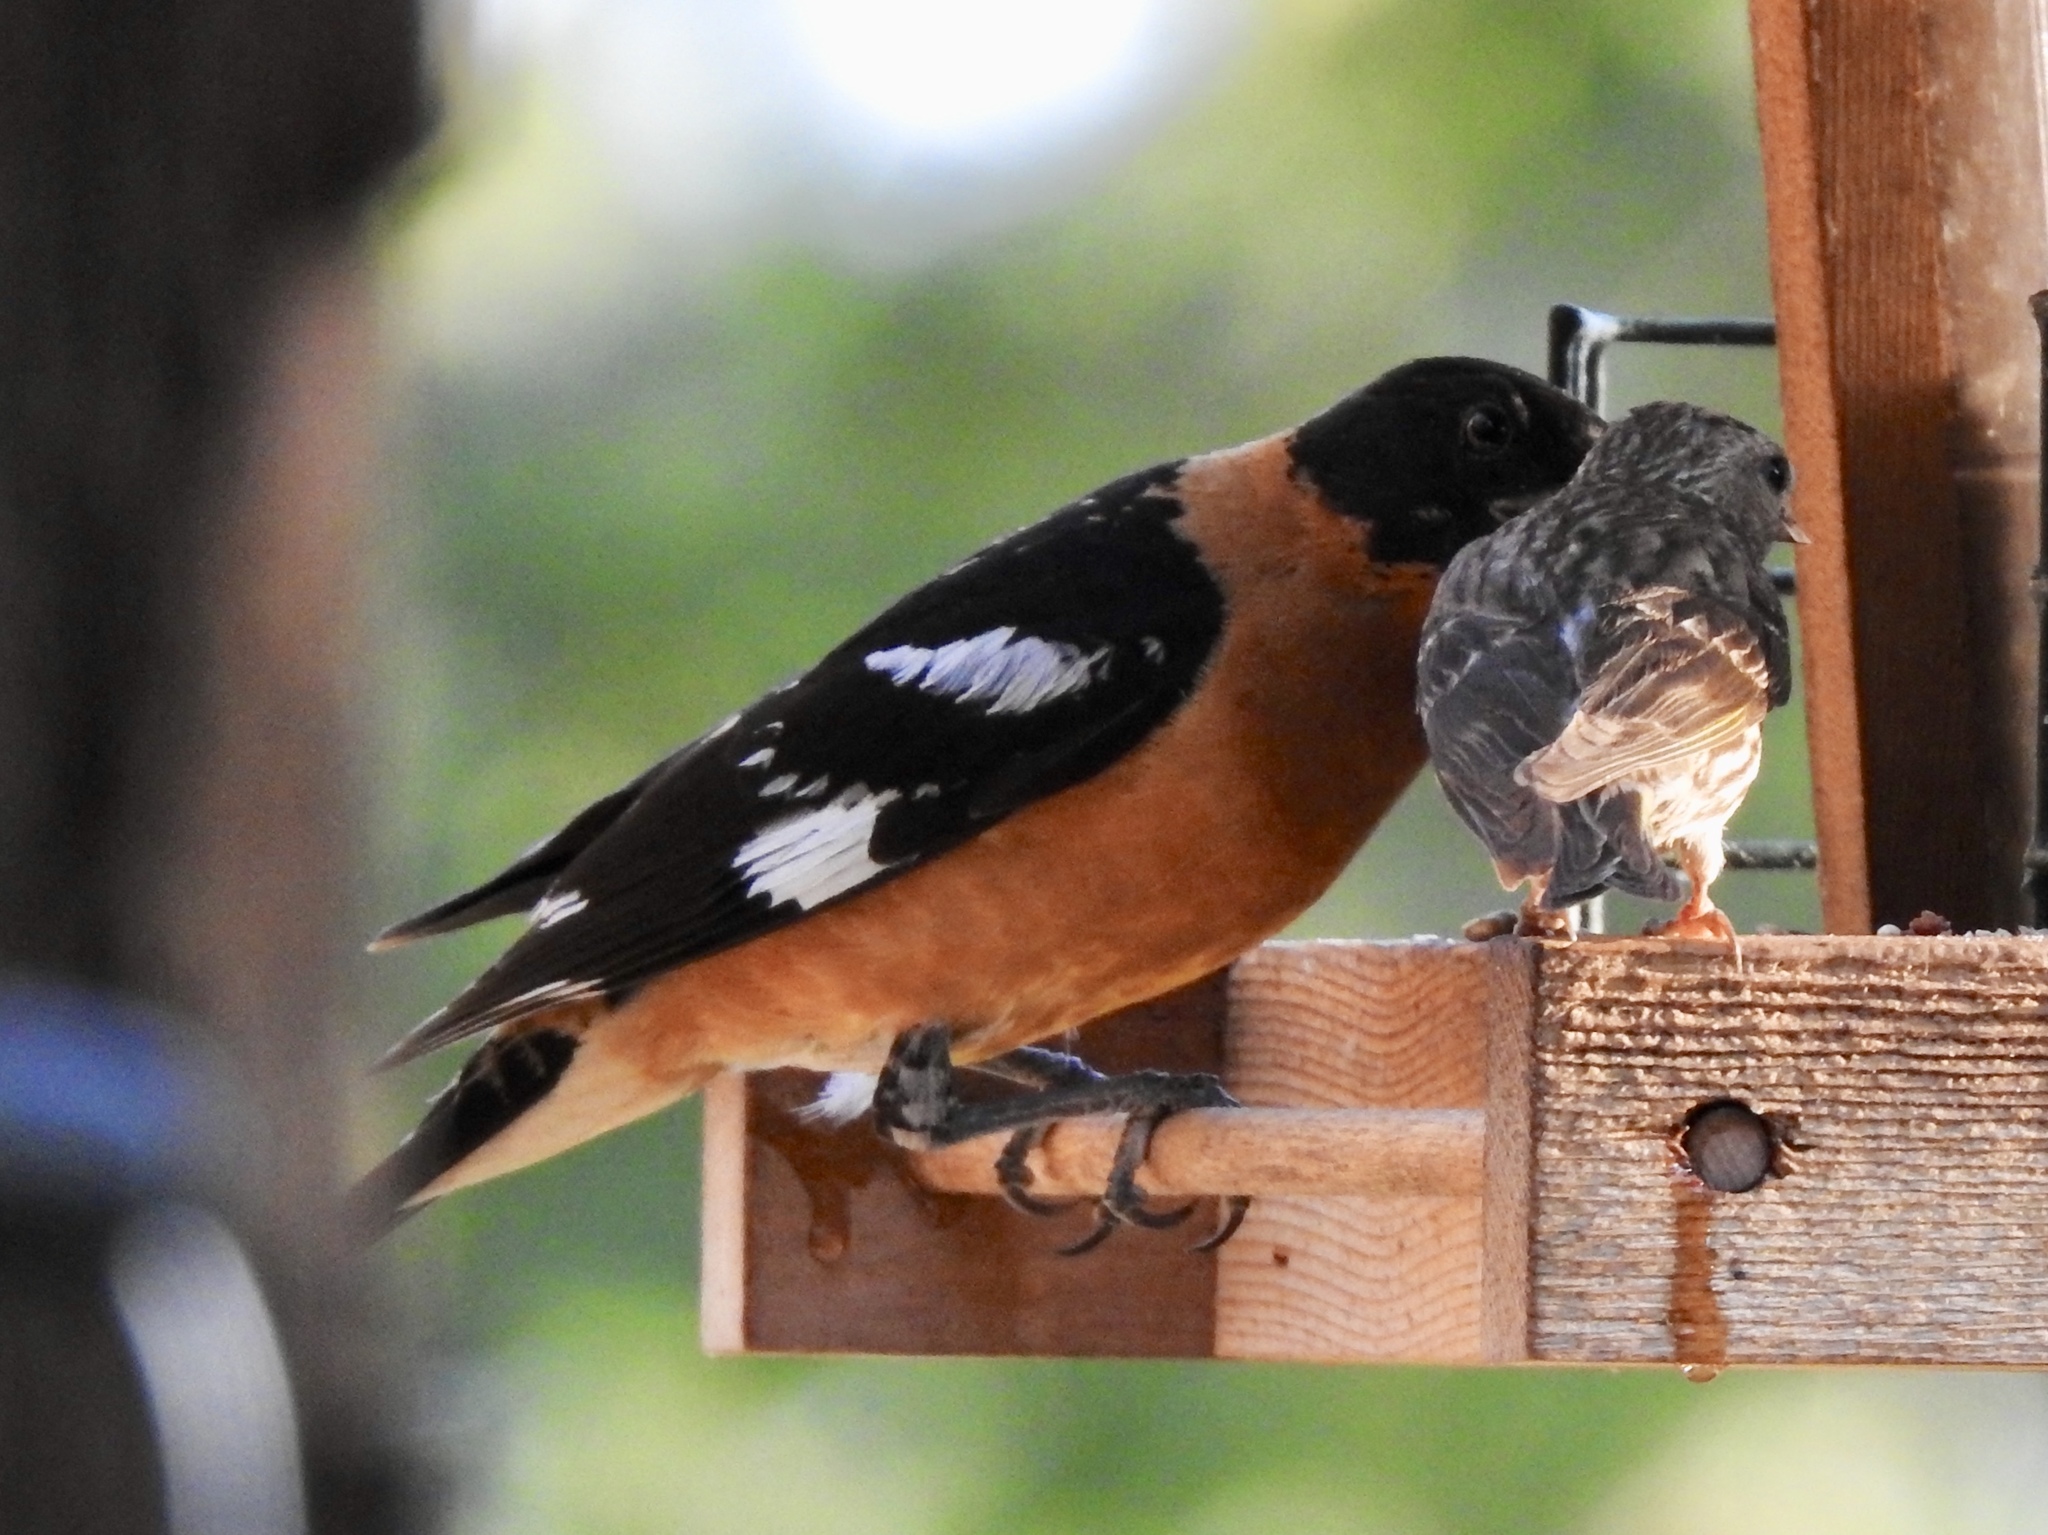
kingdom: Animalia
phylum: Chordata
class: Aves
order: Passeriformes
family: Cardinalidae
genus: Pheucticus
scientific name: Pheucticus melanocephalus
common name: Black-headed grosbeak
